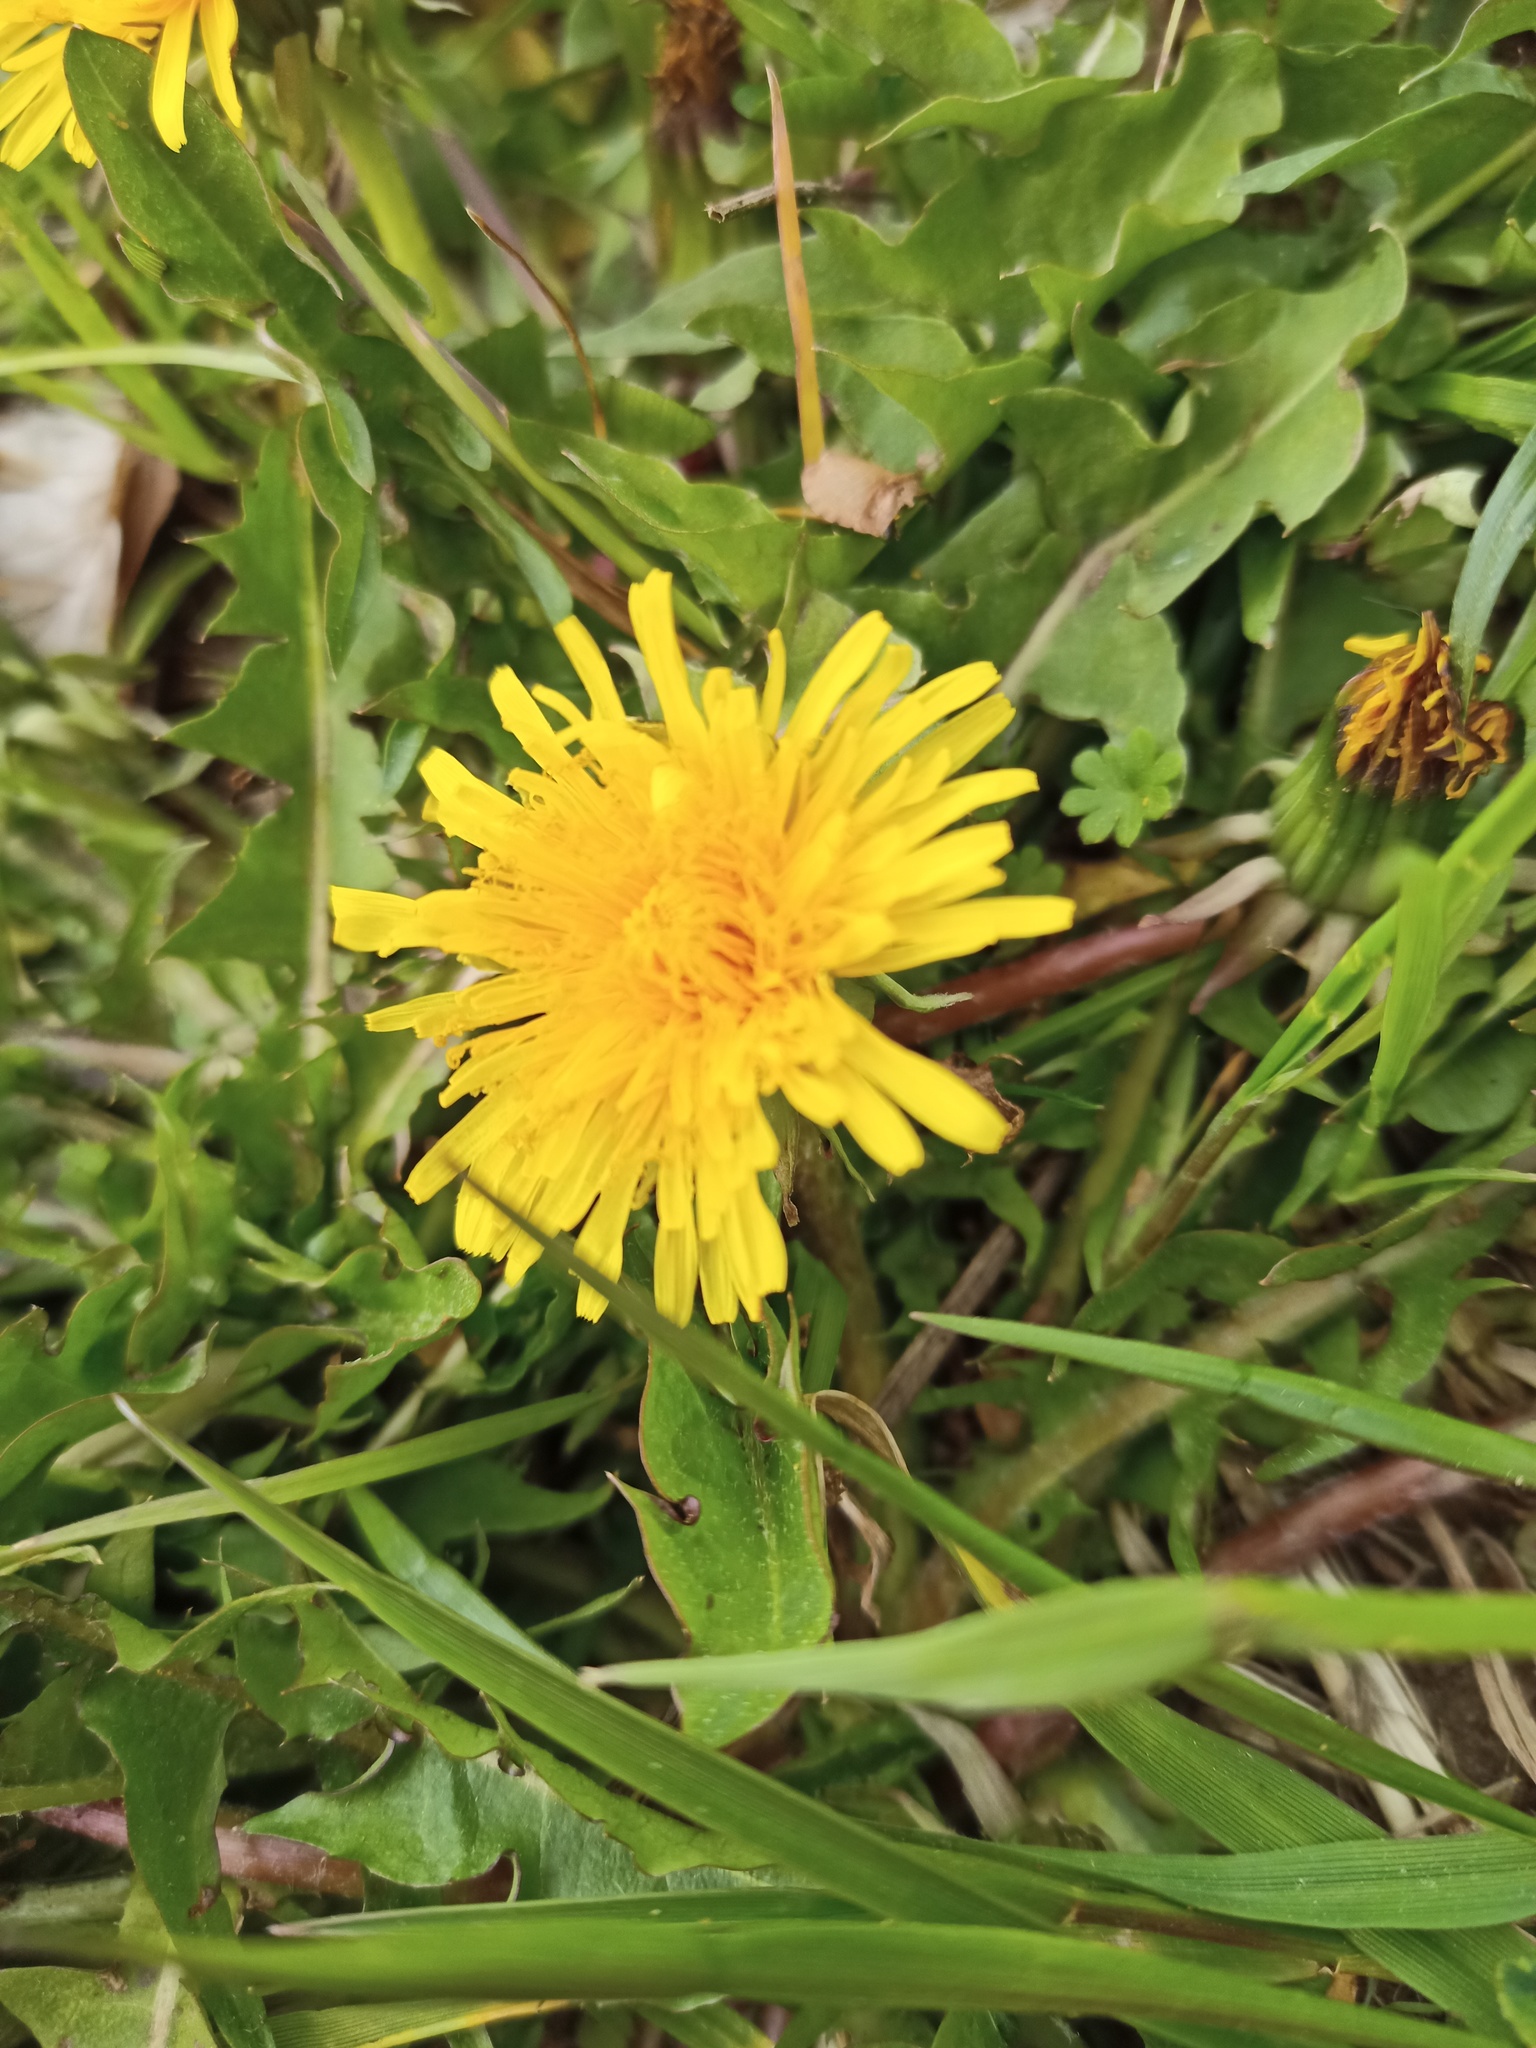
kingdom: Plantae
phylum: Tracheophyta
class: Magnoliopsida
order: Asterales
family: Asteraceae
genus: Taraxacum
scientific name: Taraxacum officinale
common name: Common dandelion
